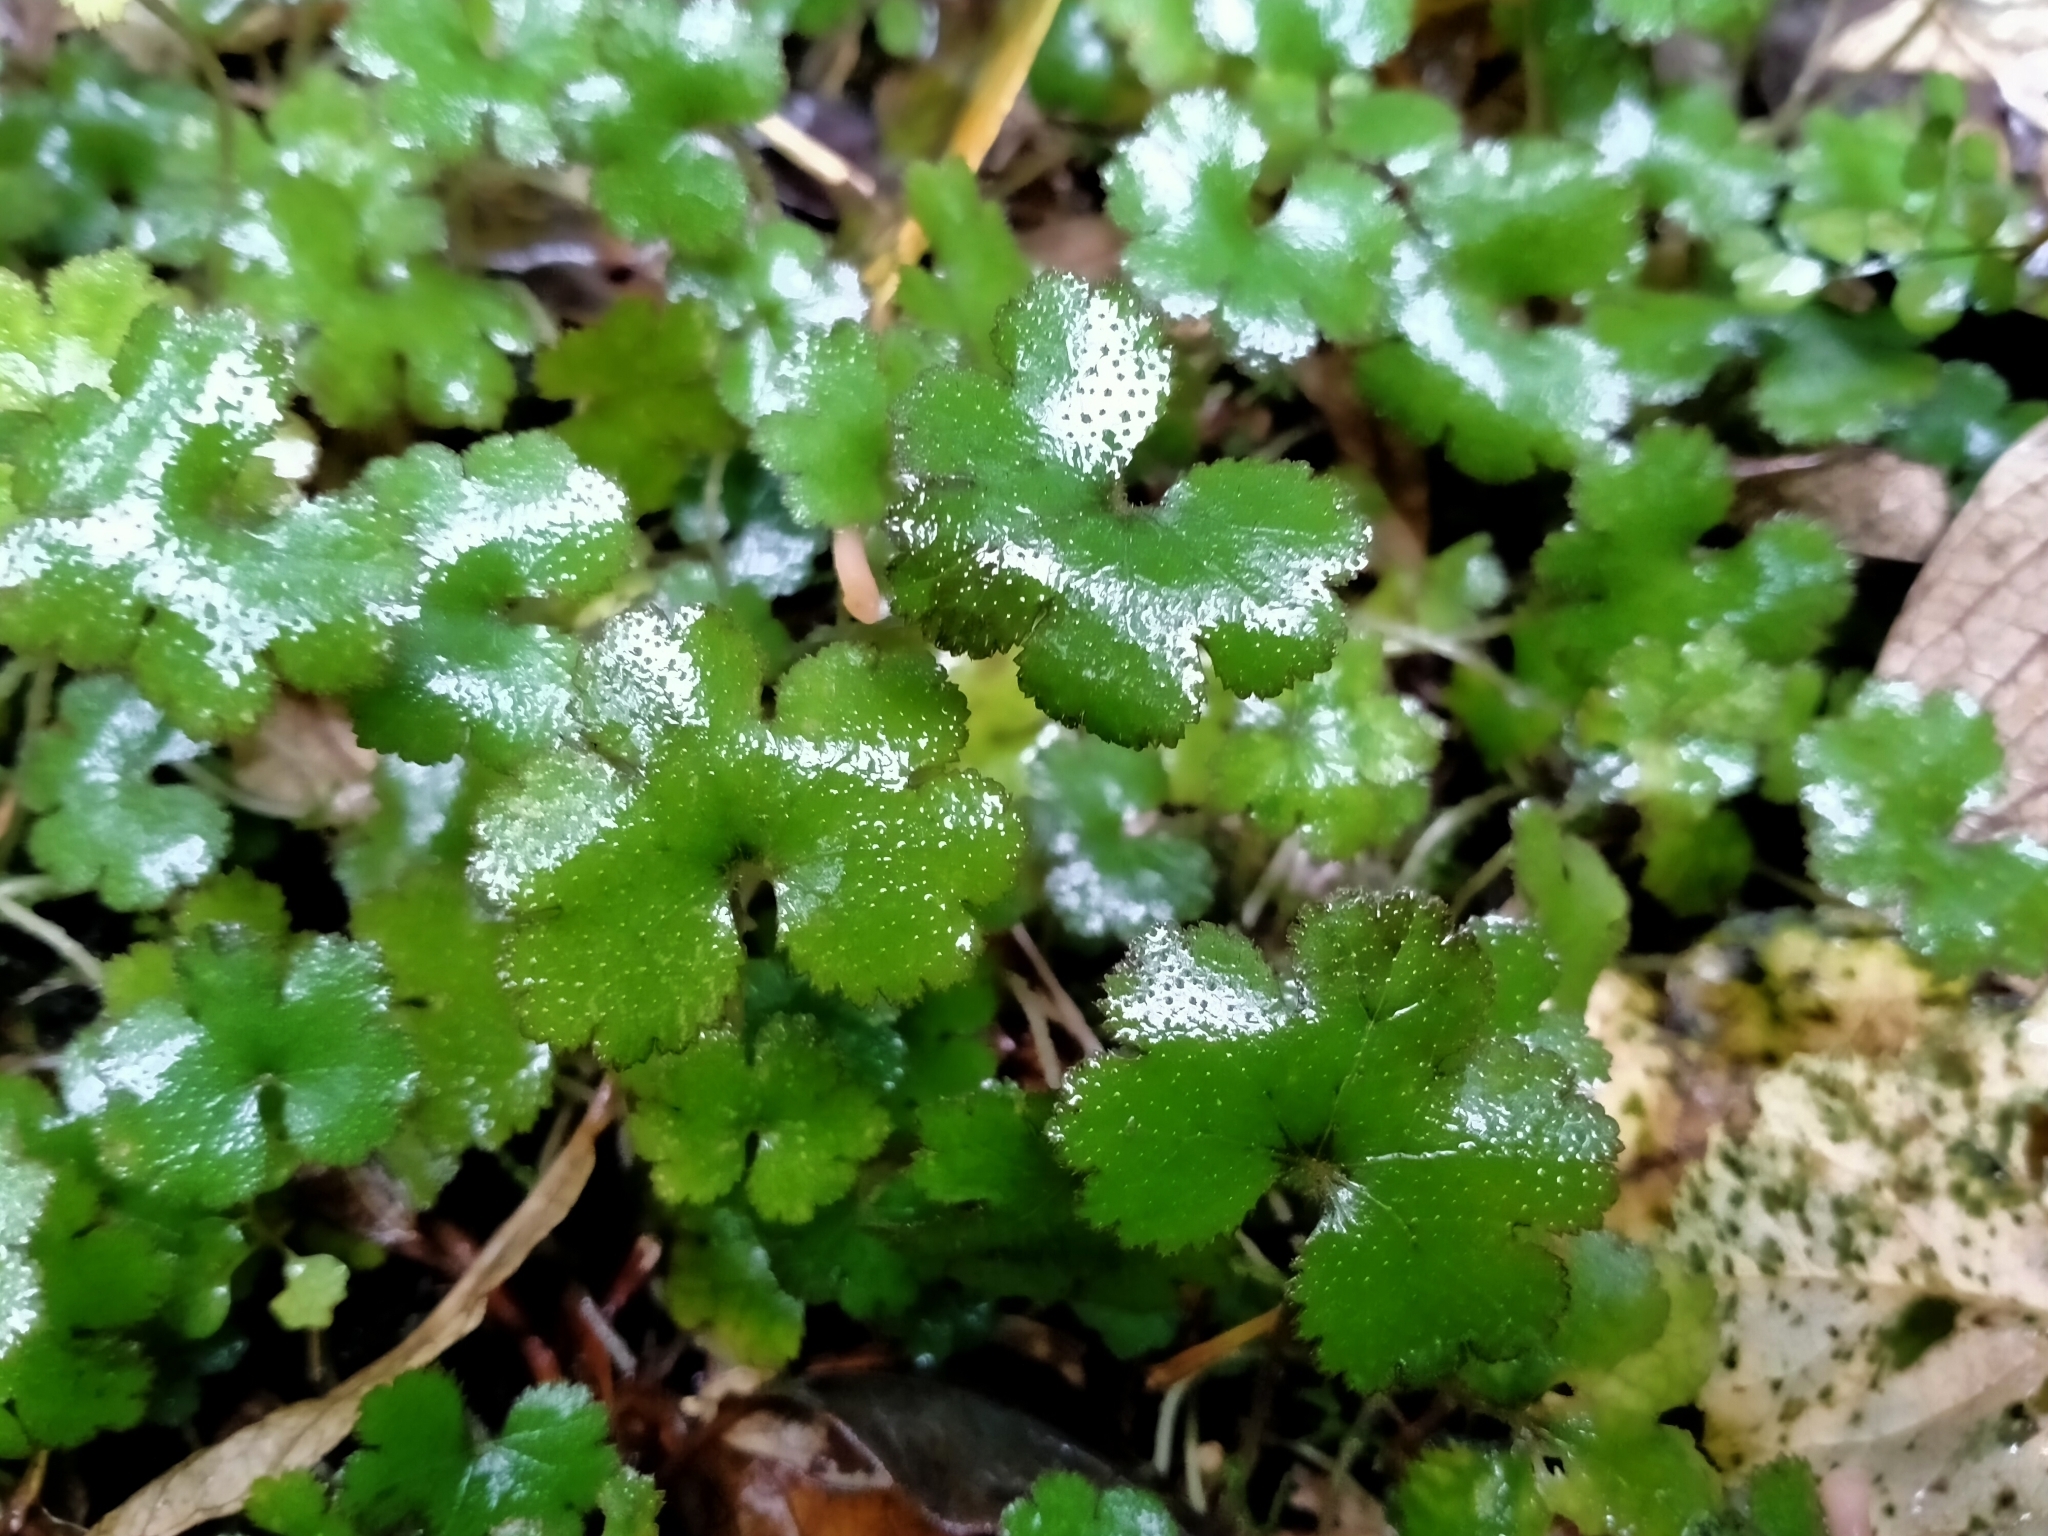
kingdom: Plantae
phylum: Tracheophyta
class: Magnoliopsida
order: Apiales
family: Araliaceae
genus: Hydrocotyle
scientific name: Hydrocotyle elongata
